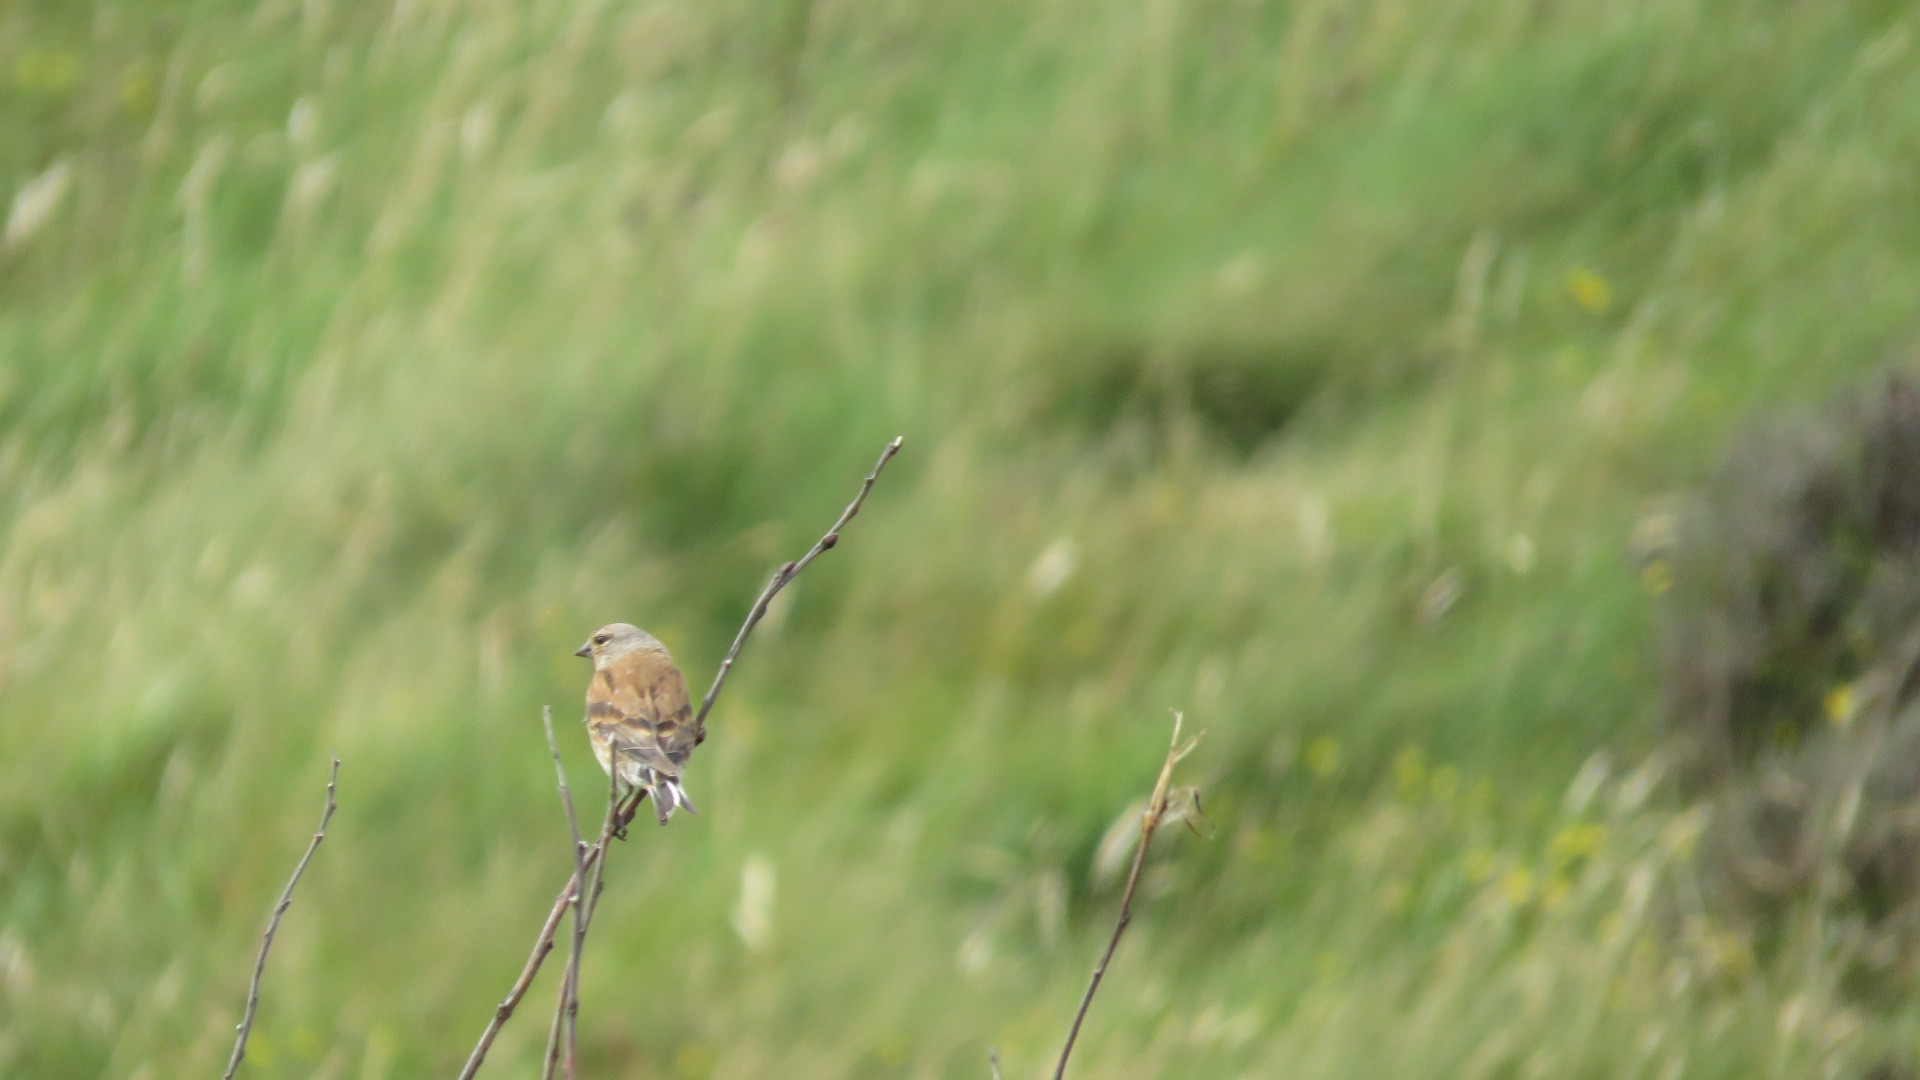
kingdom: Animalia
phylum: Chordata
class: Aves
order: Passeriformes
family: Fringillidae
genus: Linaria
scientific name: Linaria cannabina
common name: Common linnet
